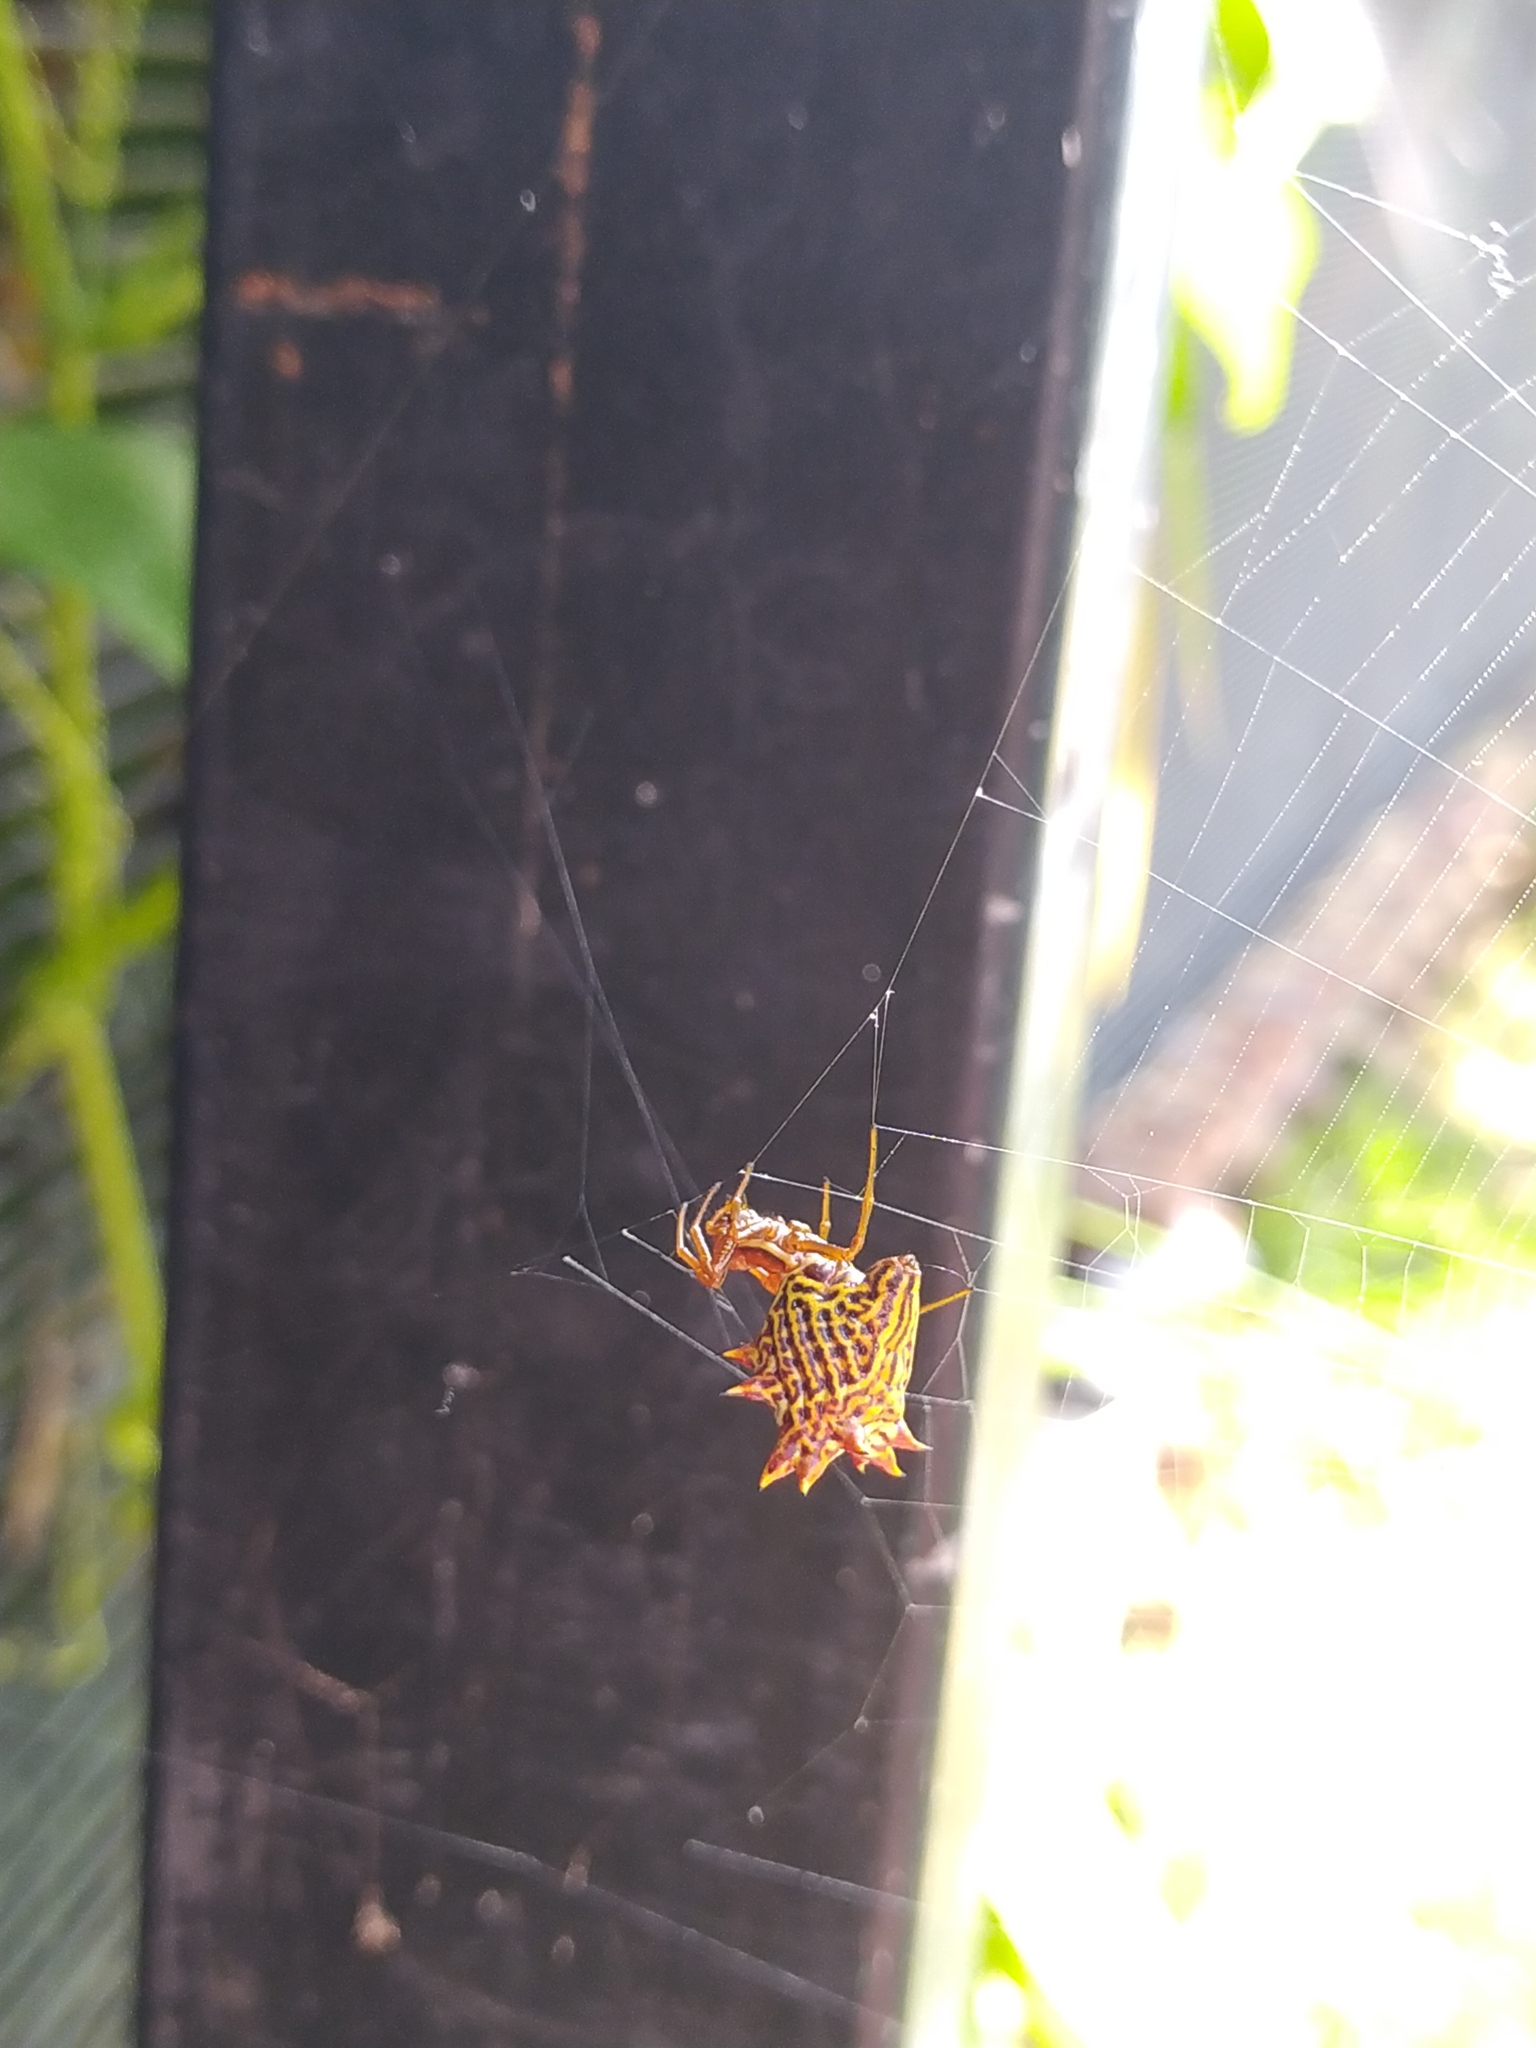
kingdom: Animalia
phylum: Arthropoda
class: Arachnida
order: Araneae
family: Araneidae
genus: Micrathena
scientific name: Micrathena gracilis
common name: Orb weavers
